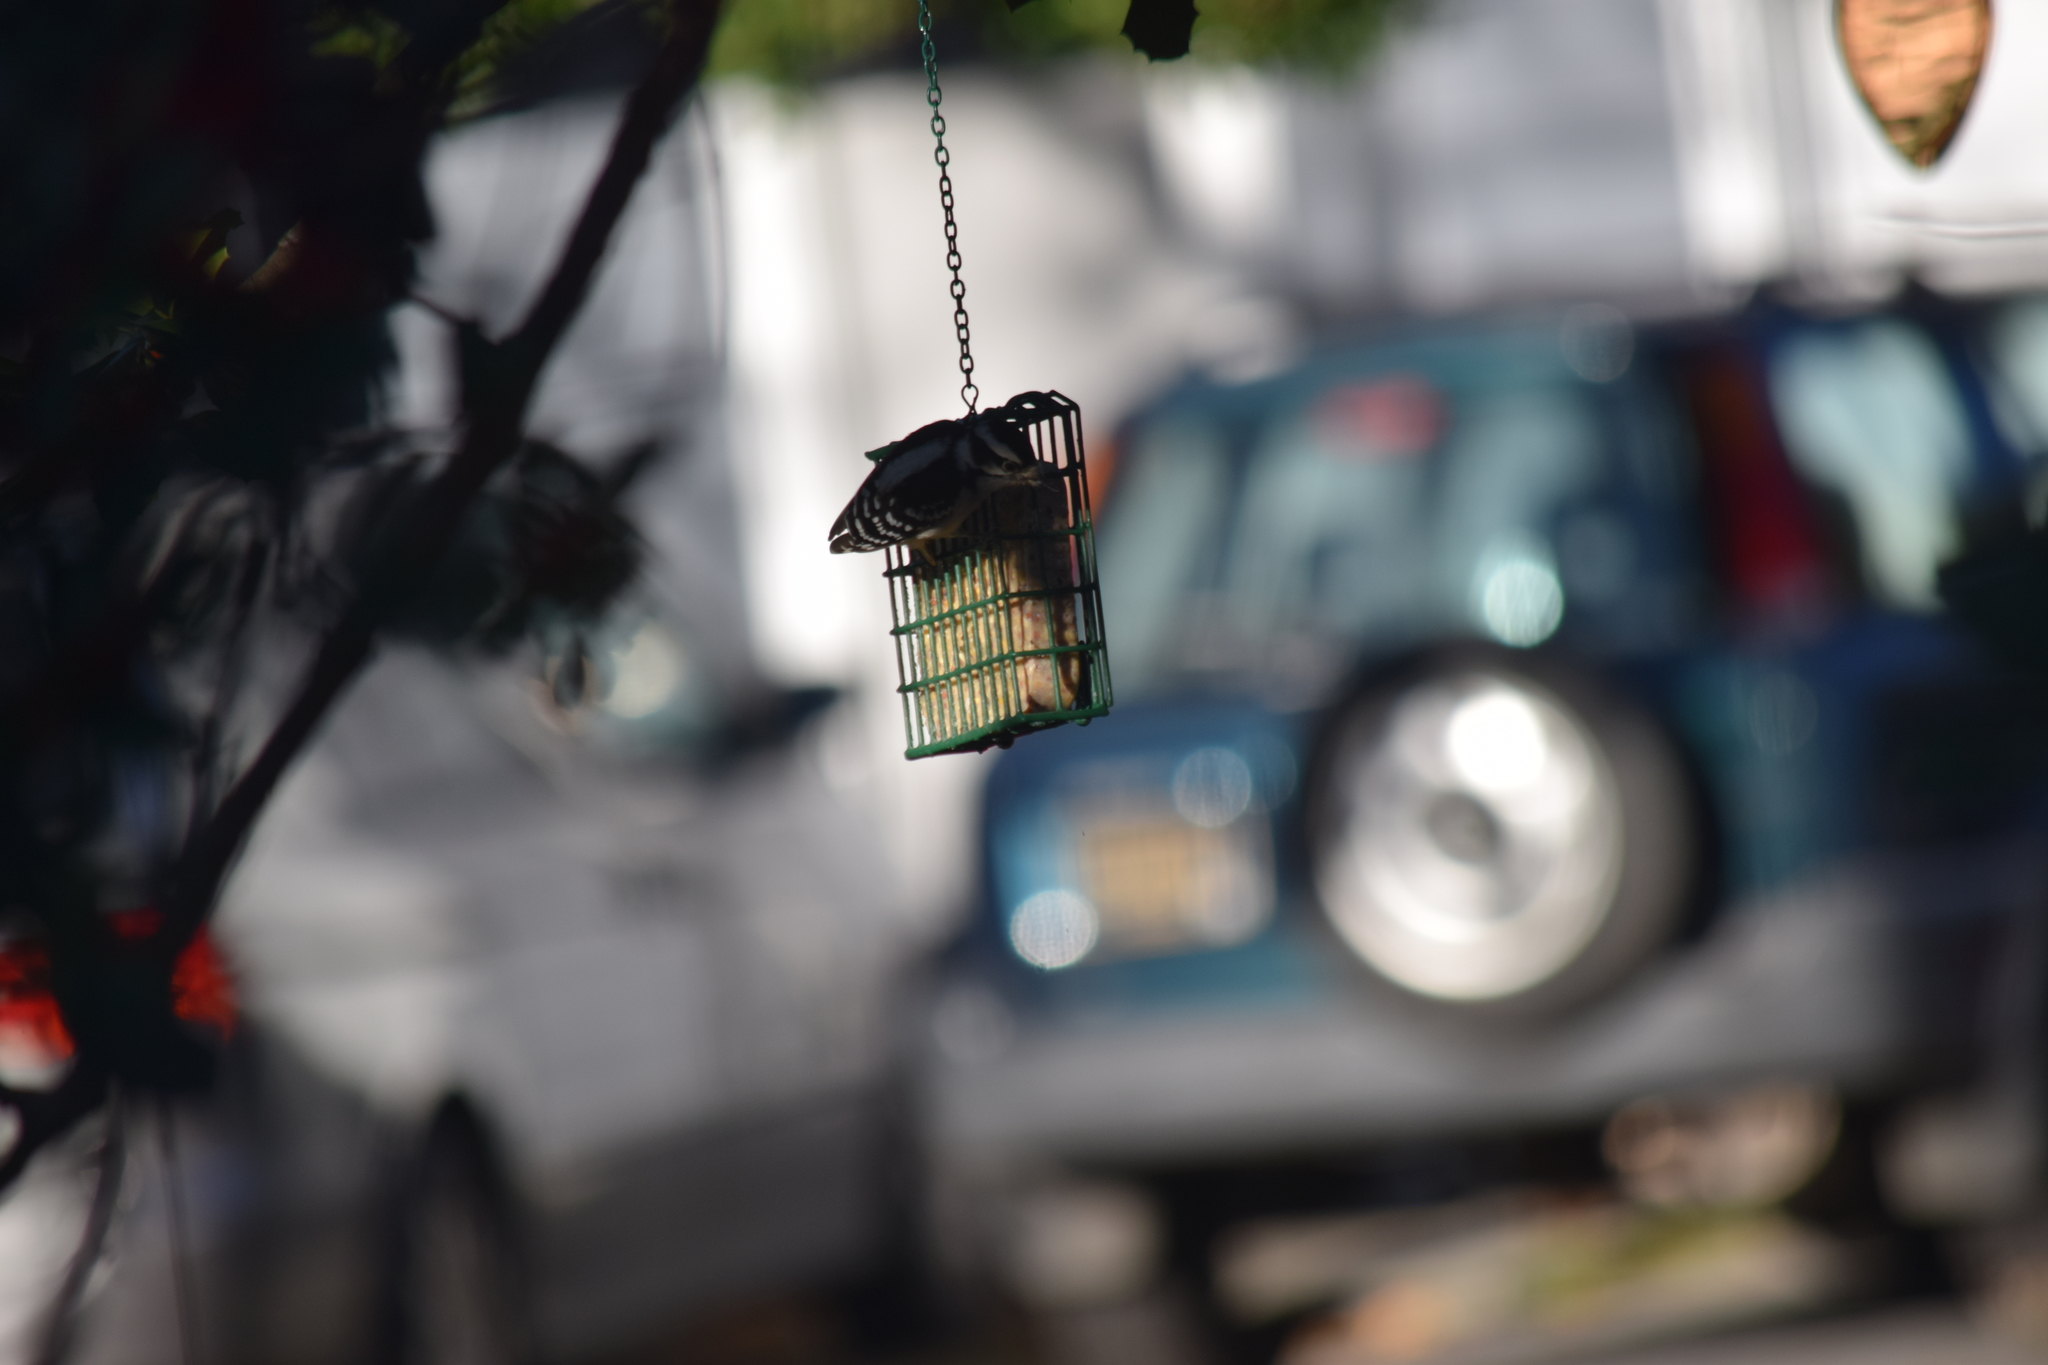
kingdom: Animalia
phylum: Chordata
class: Aves
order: Piciformes
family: Picidae
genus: Dryobates
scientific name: Dryobates pubescens
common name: Downy woodpecker
